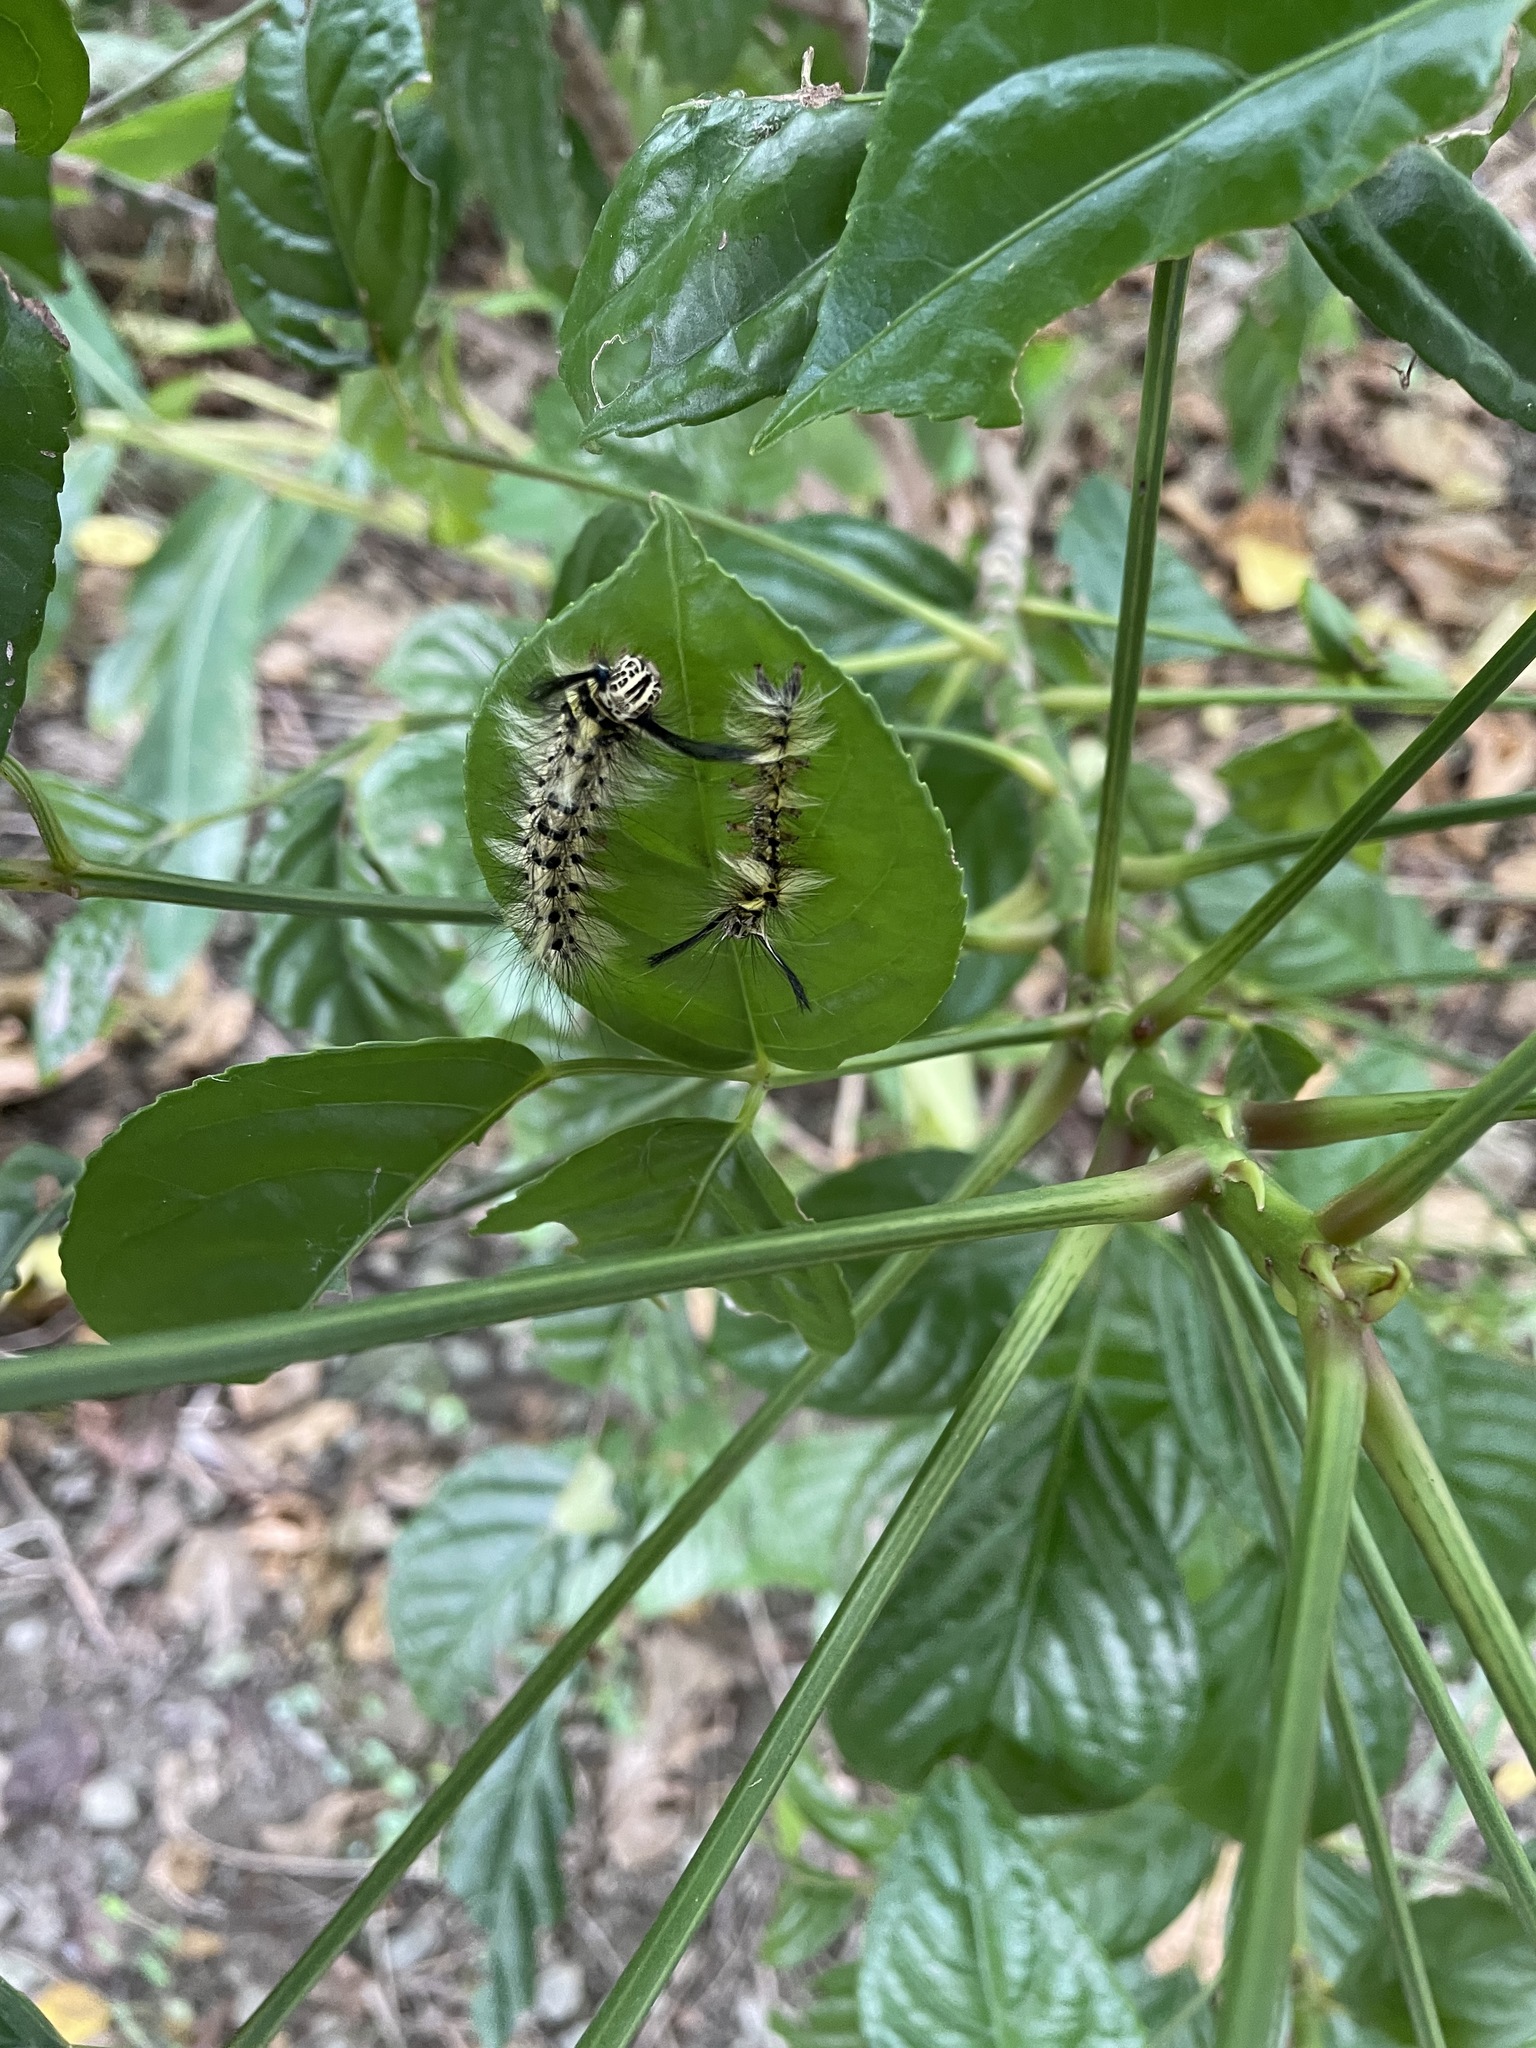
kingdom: Animalia
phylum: Arthropoda
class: Insecta
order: Lepidoptera
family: Lasiocampidae
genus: Trabala
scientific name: Trabala vishnou
